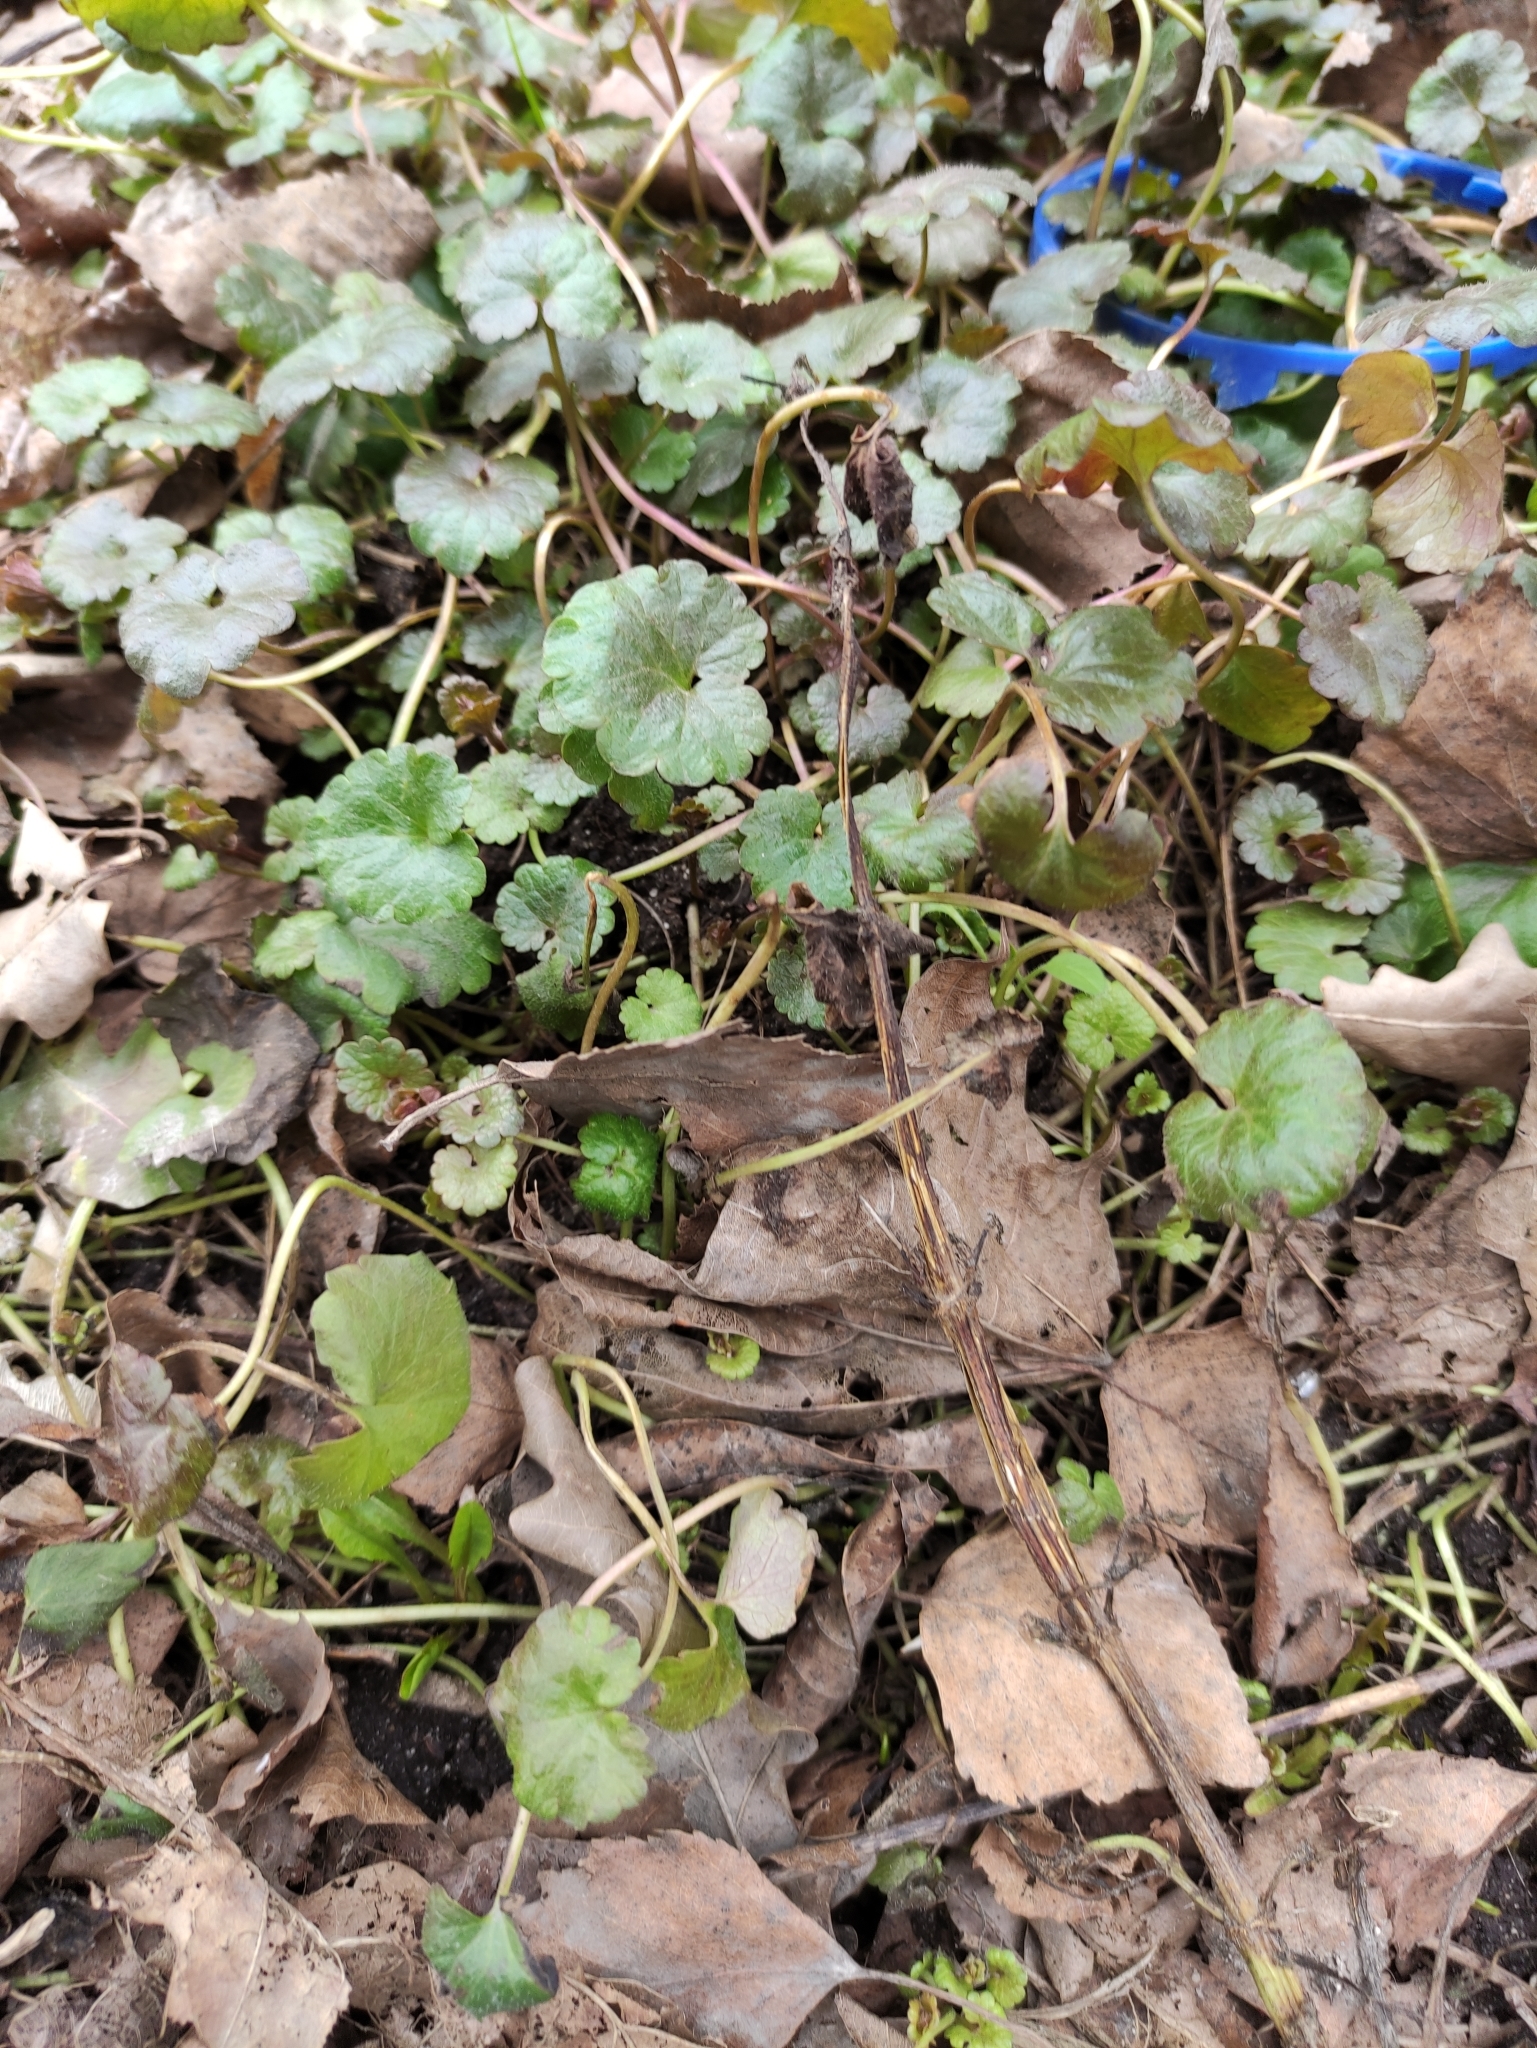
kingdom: Plantae
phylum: Tracheophyta
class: Magnoliopsida
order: Lamiales
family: Lamiaceae
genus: Glechoma
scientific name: Glechoma hederacea
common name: Ground ivy
